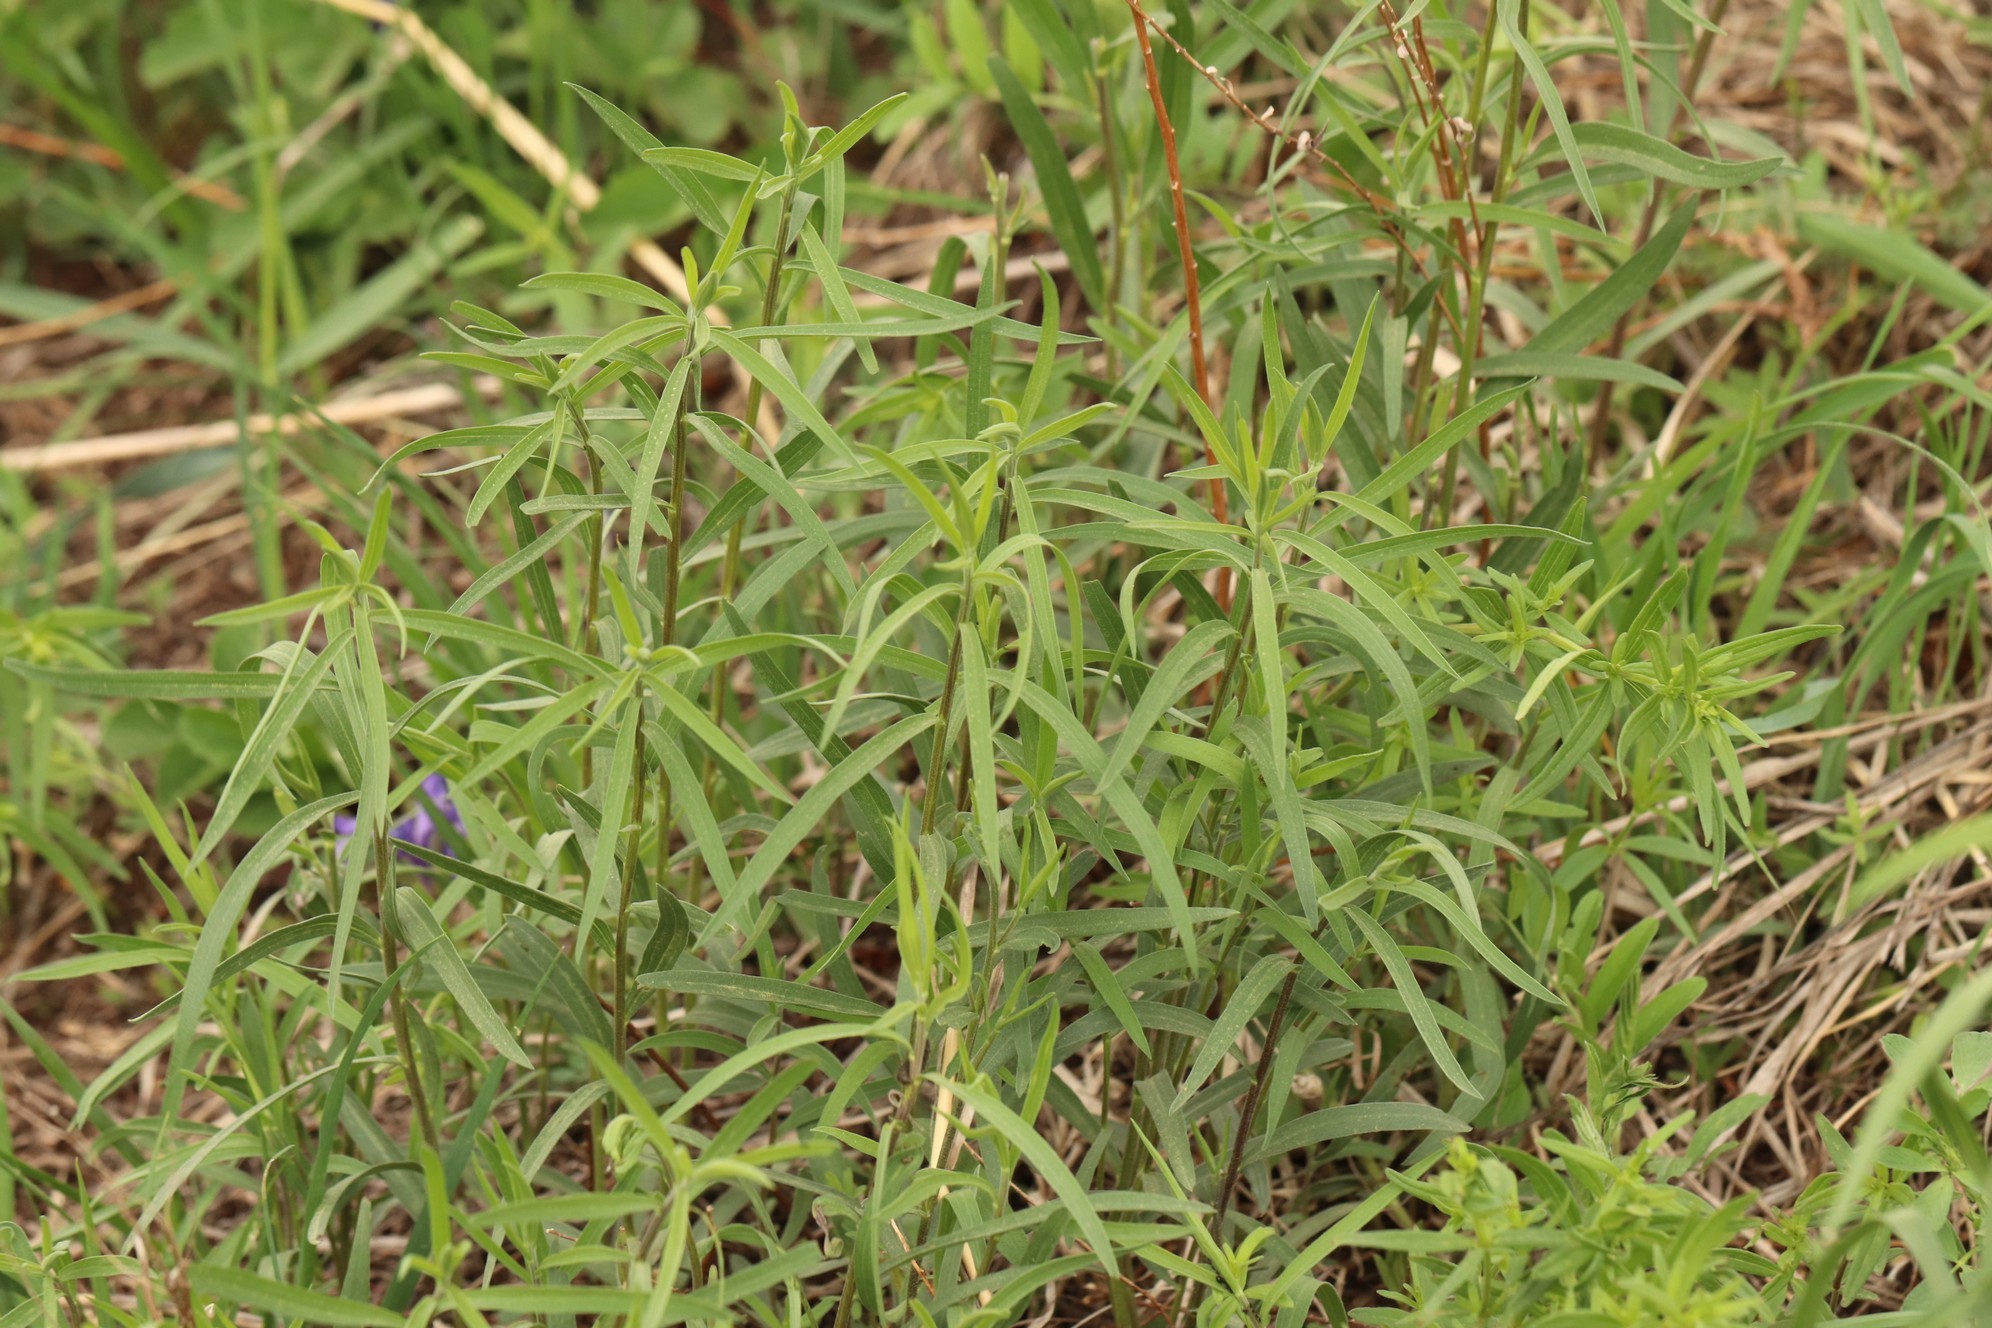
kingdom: Plantae
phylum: Tracheophyta
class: Magnoliopsida
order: Asterales
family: Asteraceae
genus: Artemisia
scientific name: Artemisia dracunculus
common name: Tarragon
